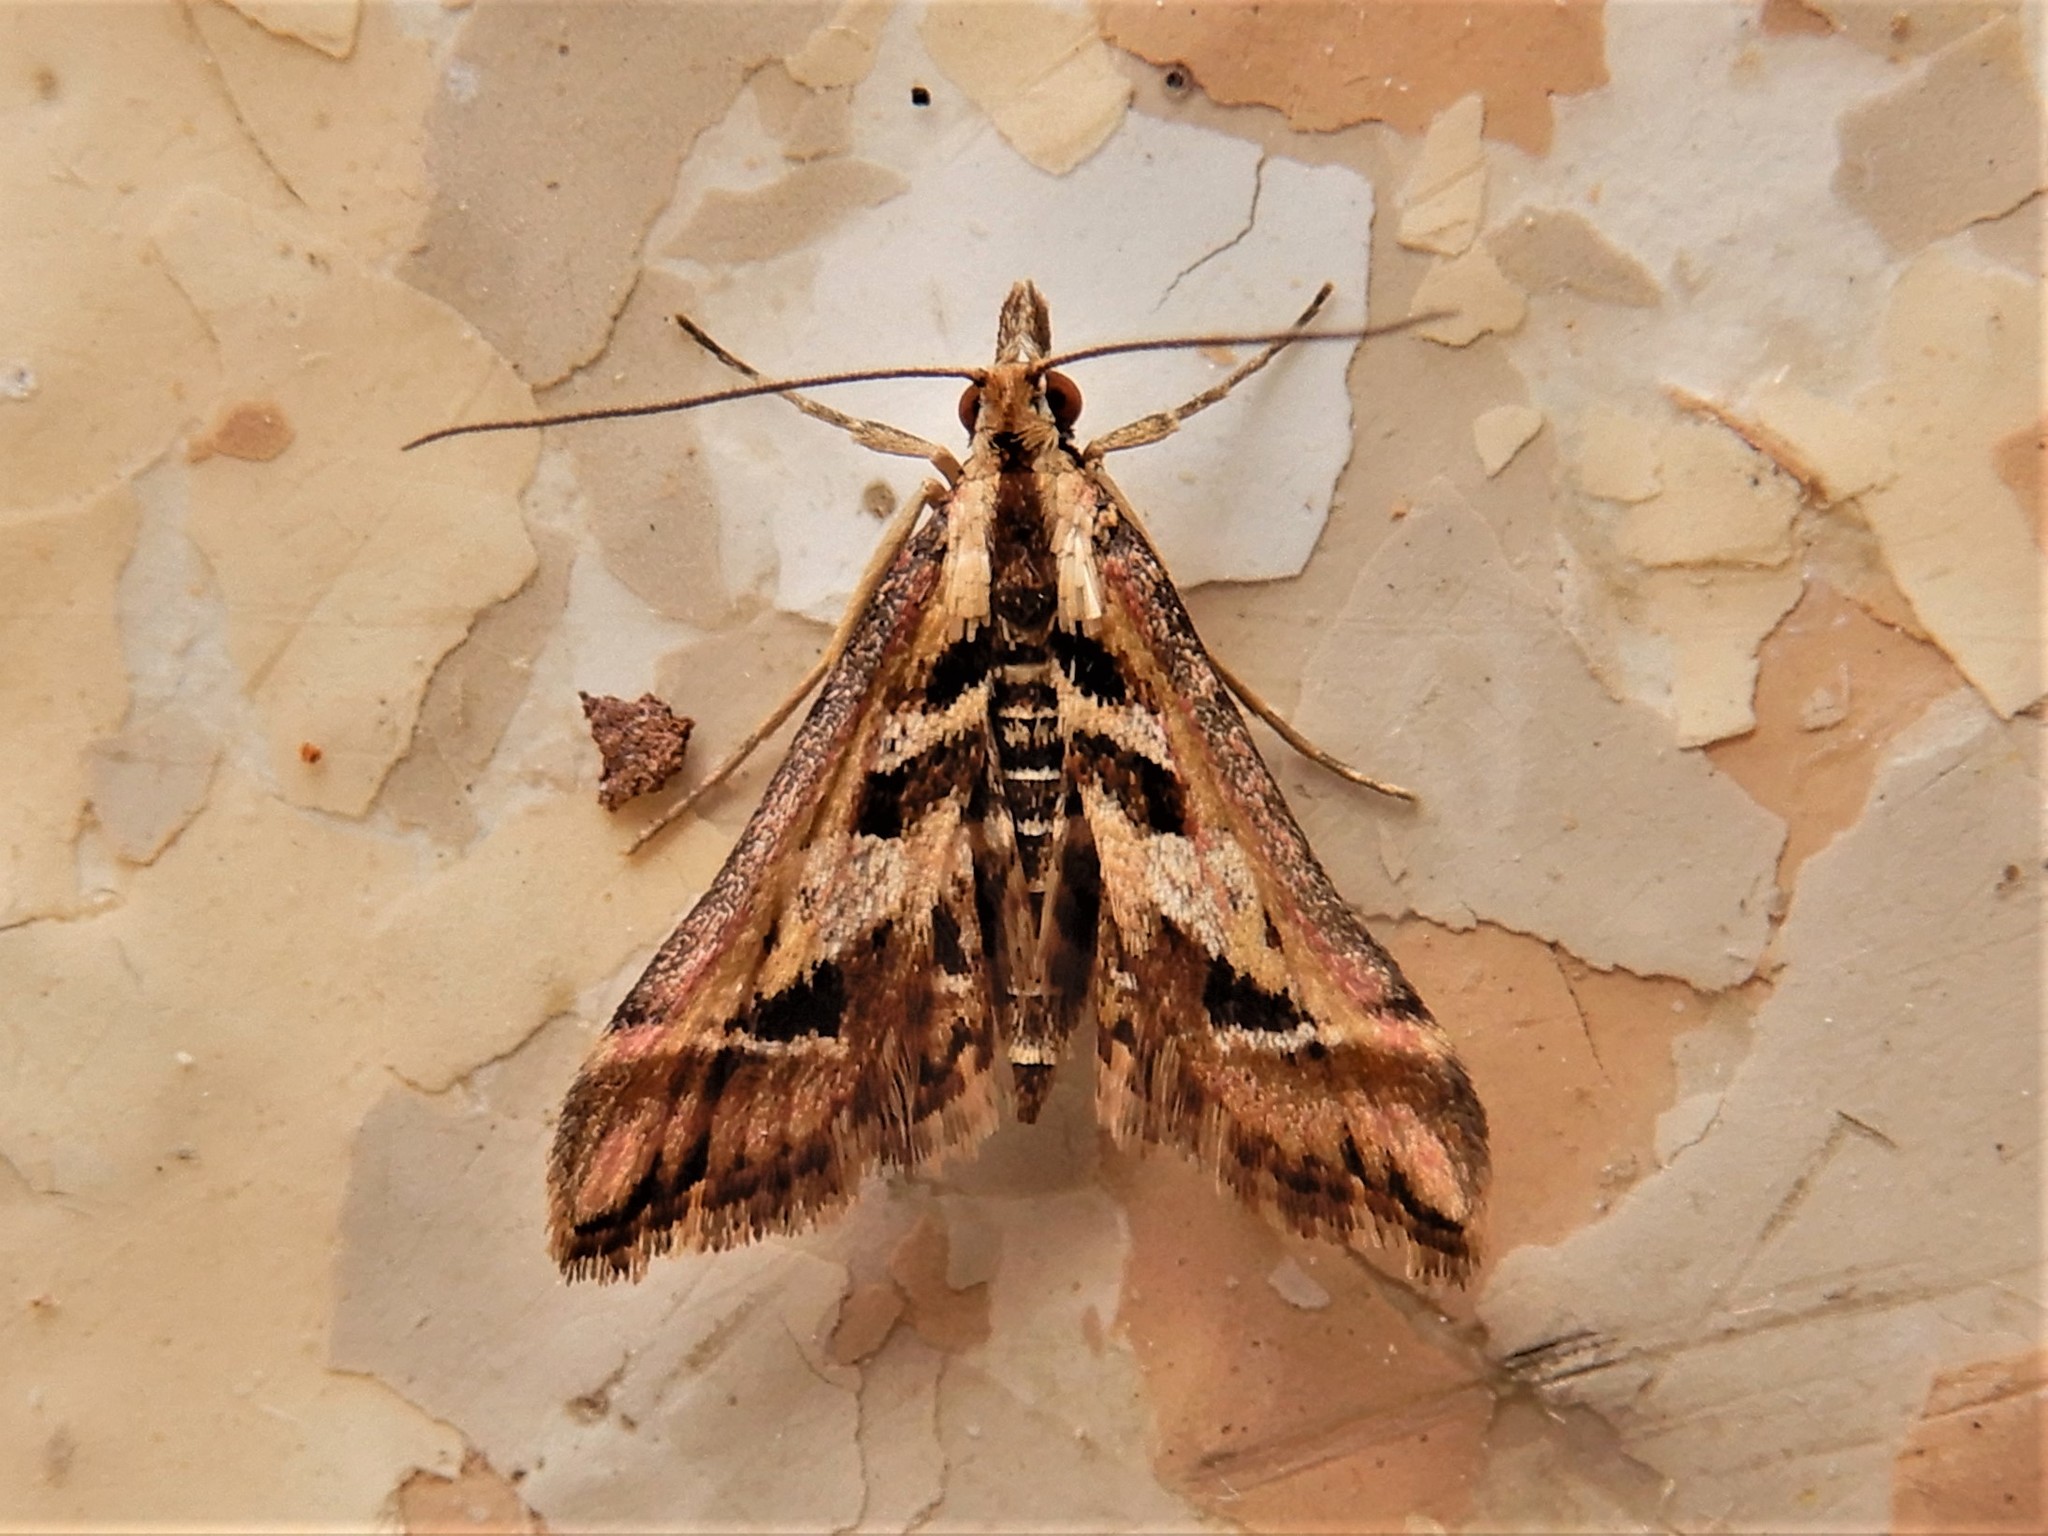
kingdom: Animalia
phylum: Arthropoda
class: Insecta
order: Lepidoptera
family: Crambidae
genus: Diasemia
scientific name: Diasemia grammalis
